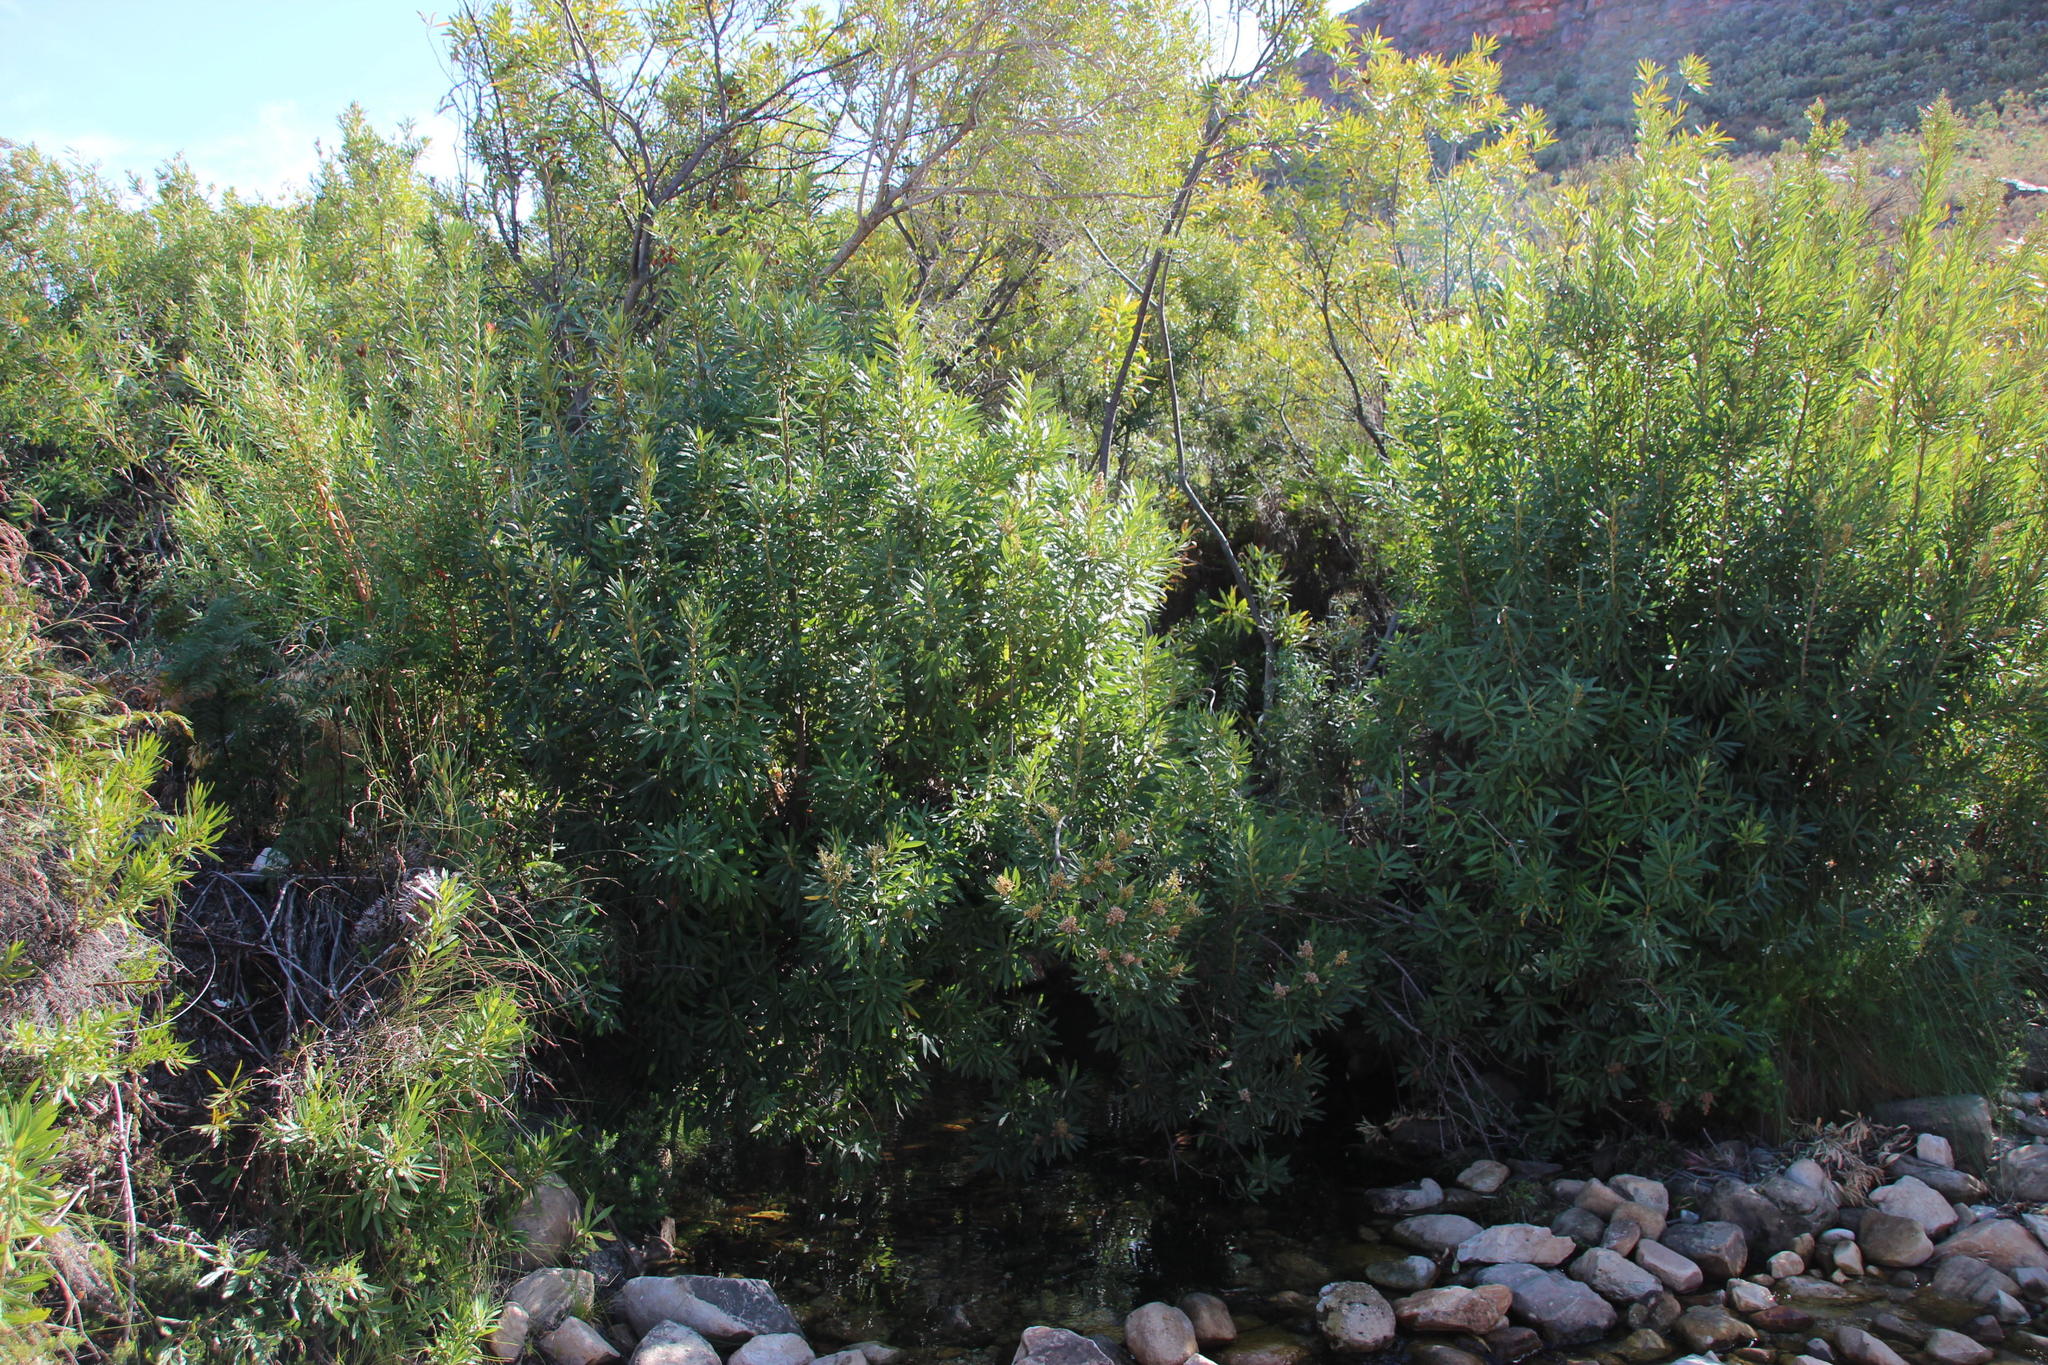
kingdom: Plantae
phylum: Tracheophyta
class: Magnoliopsida
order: Asterales
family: Asteraceae
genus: Brachylaena
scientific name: Brachylaena neriifolia
